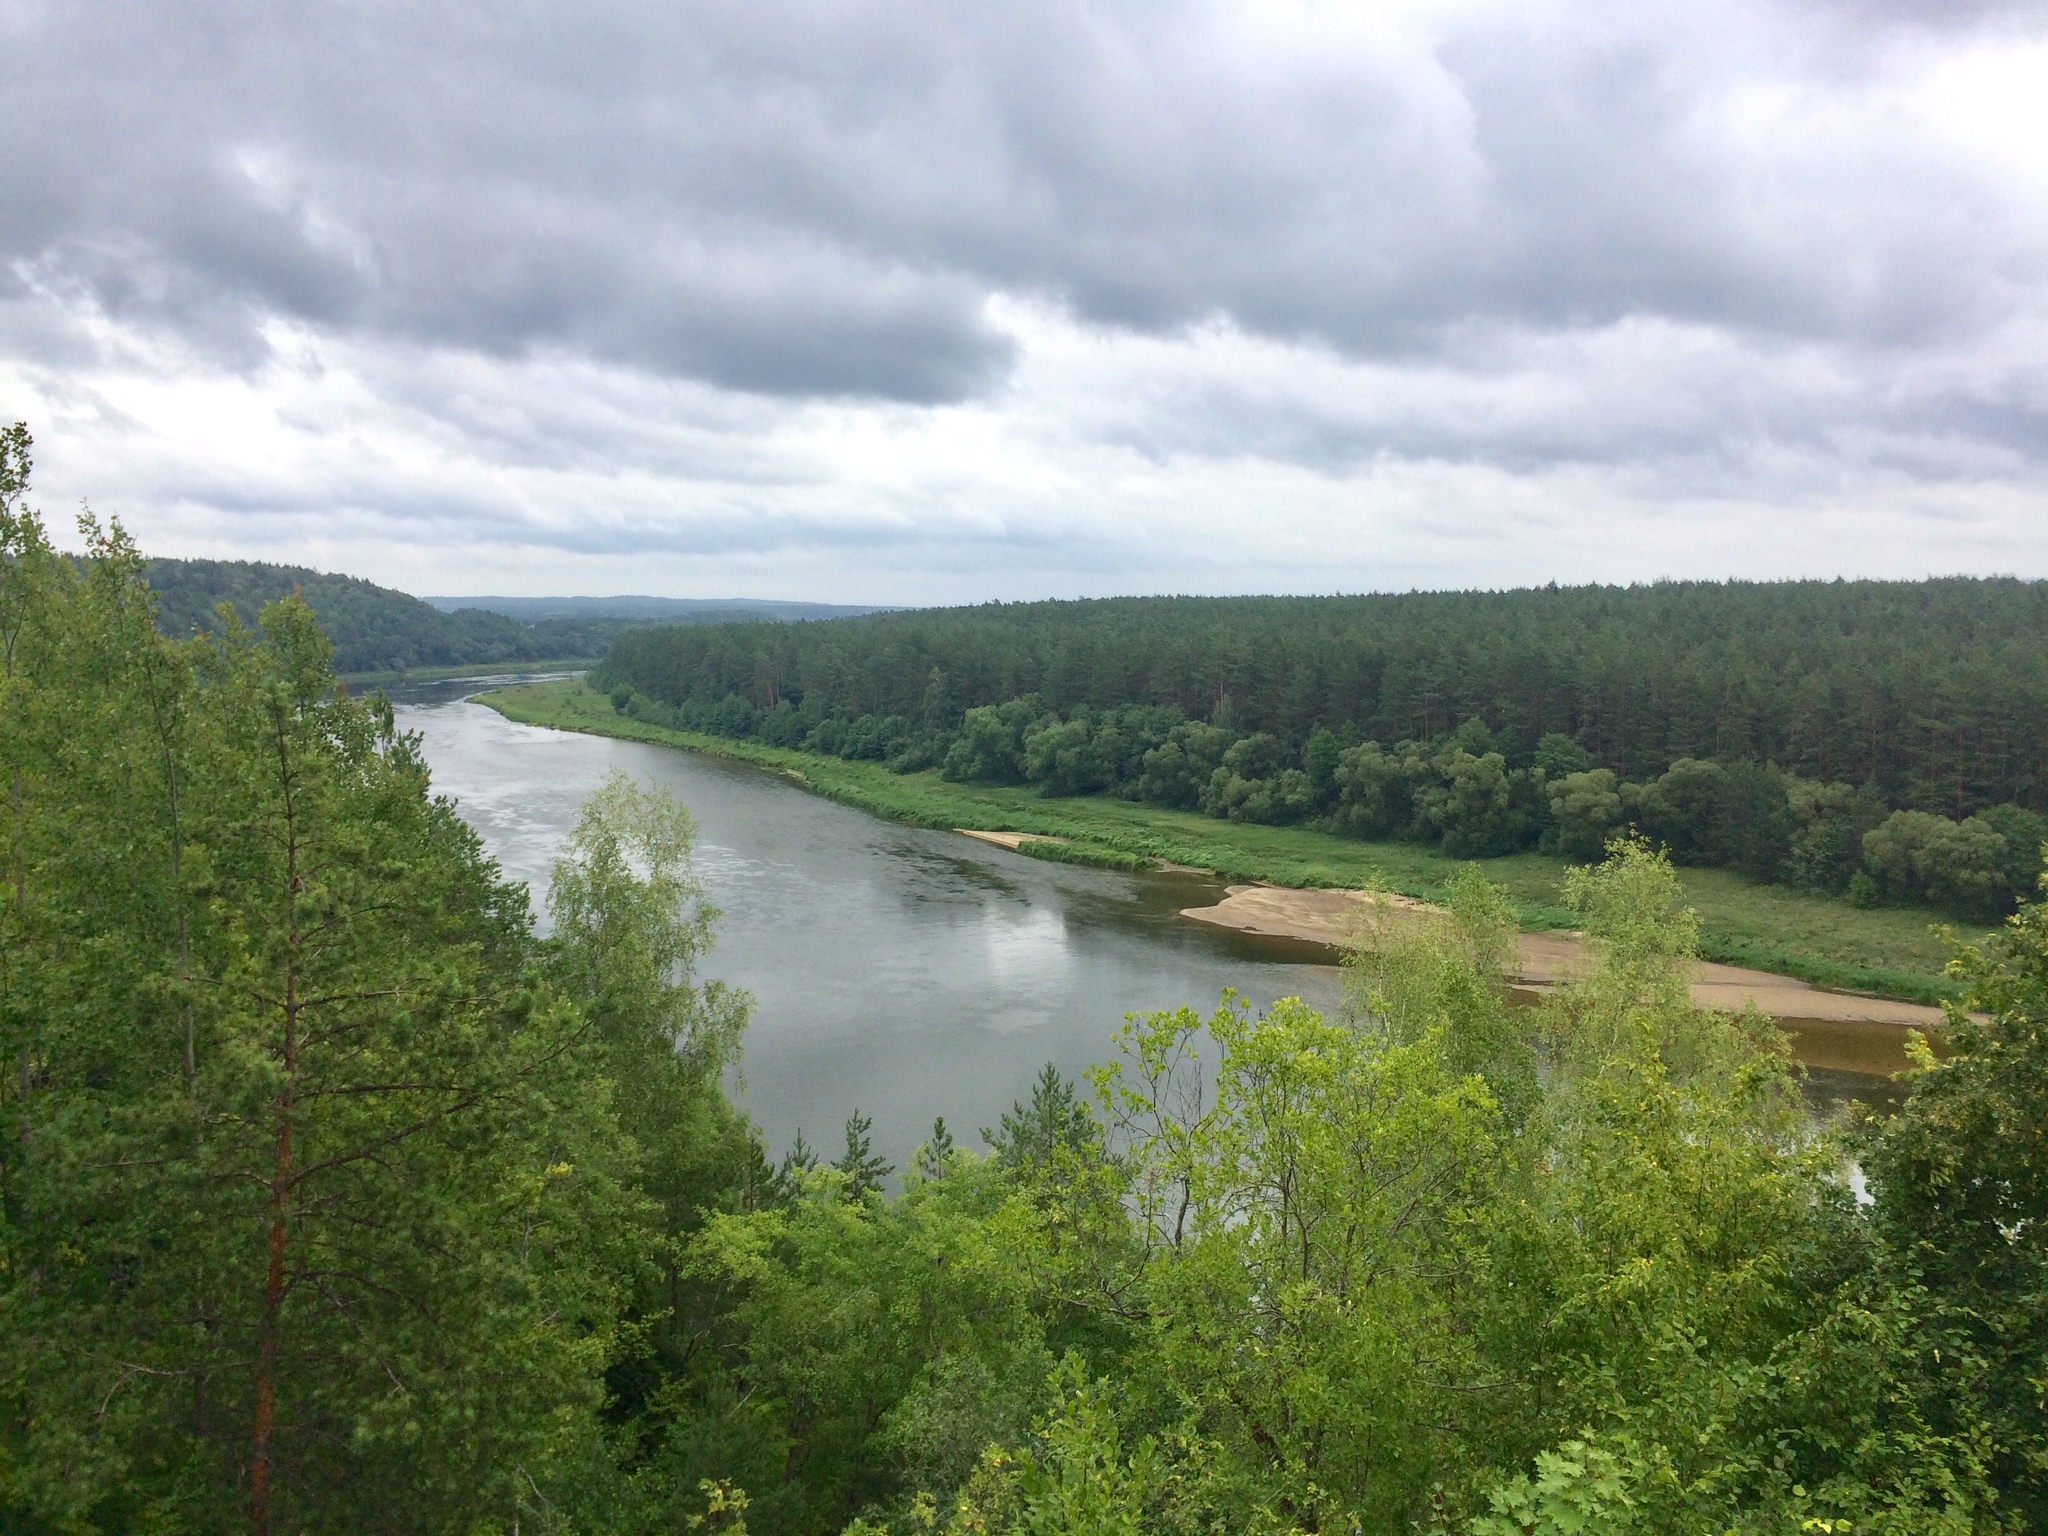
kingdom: Plantae
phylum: Tracheophyta
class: Pinopsida
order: Pinales
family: Pinaceae
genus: Pinus
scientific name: Pinus sylvestris
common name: Scots pine
